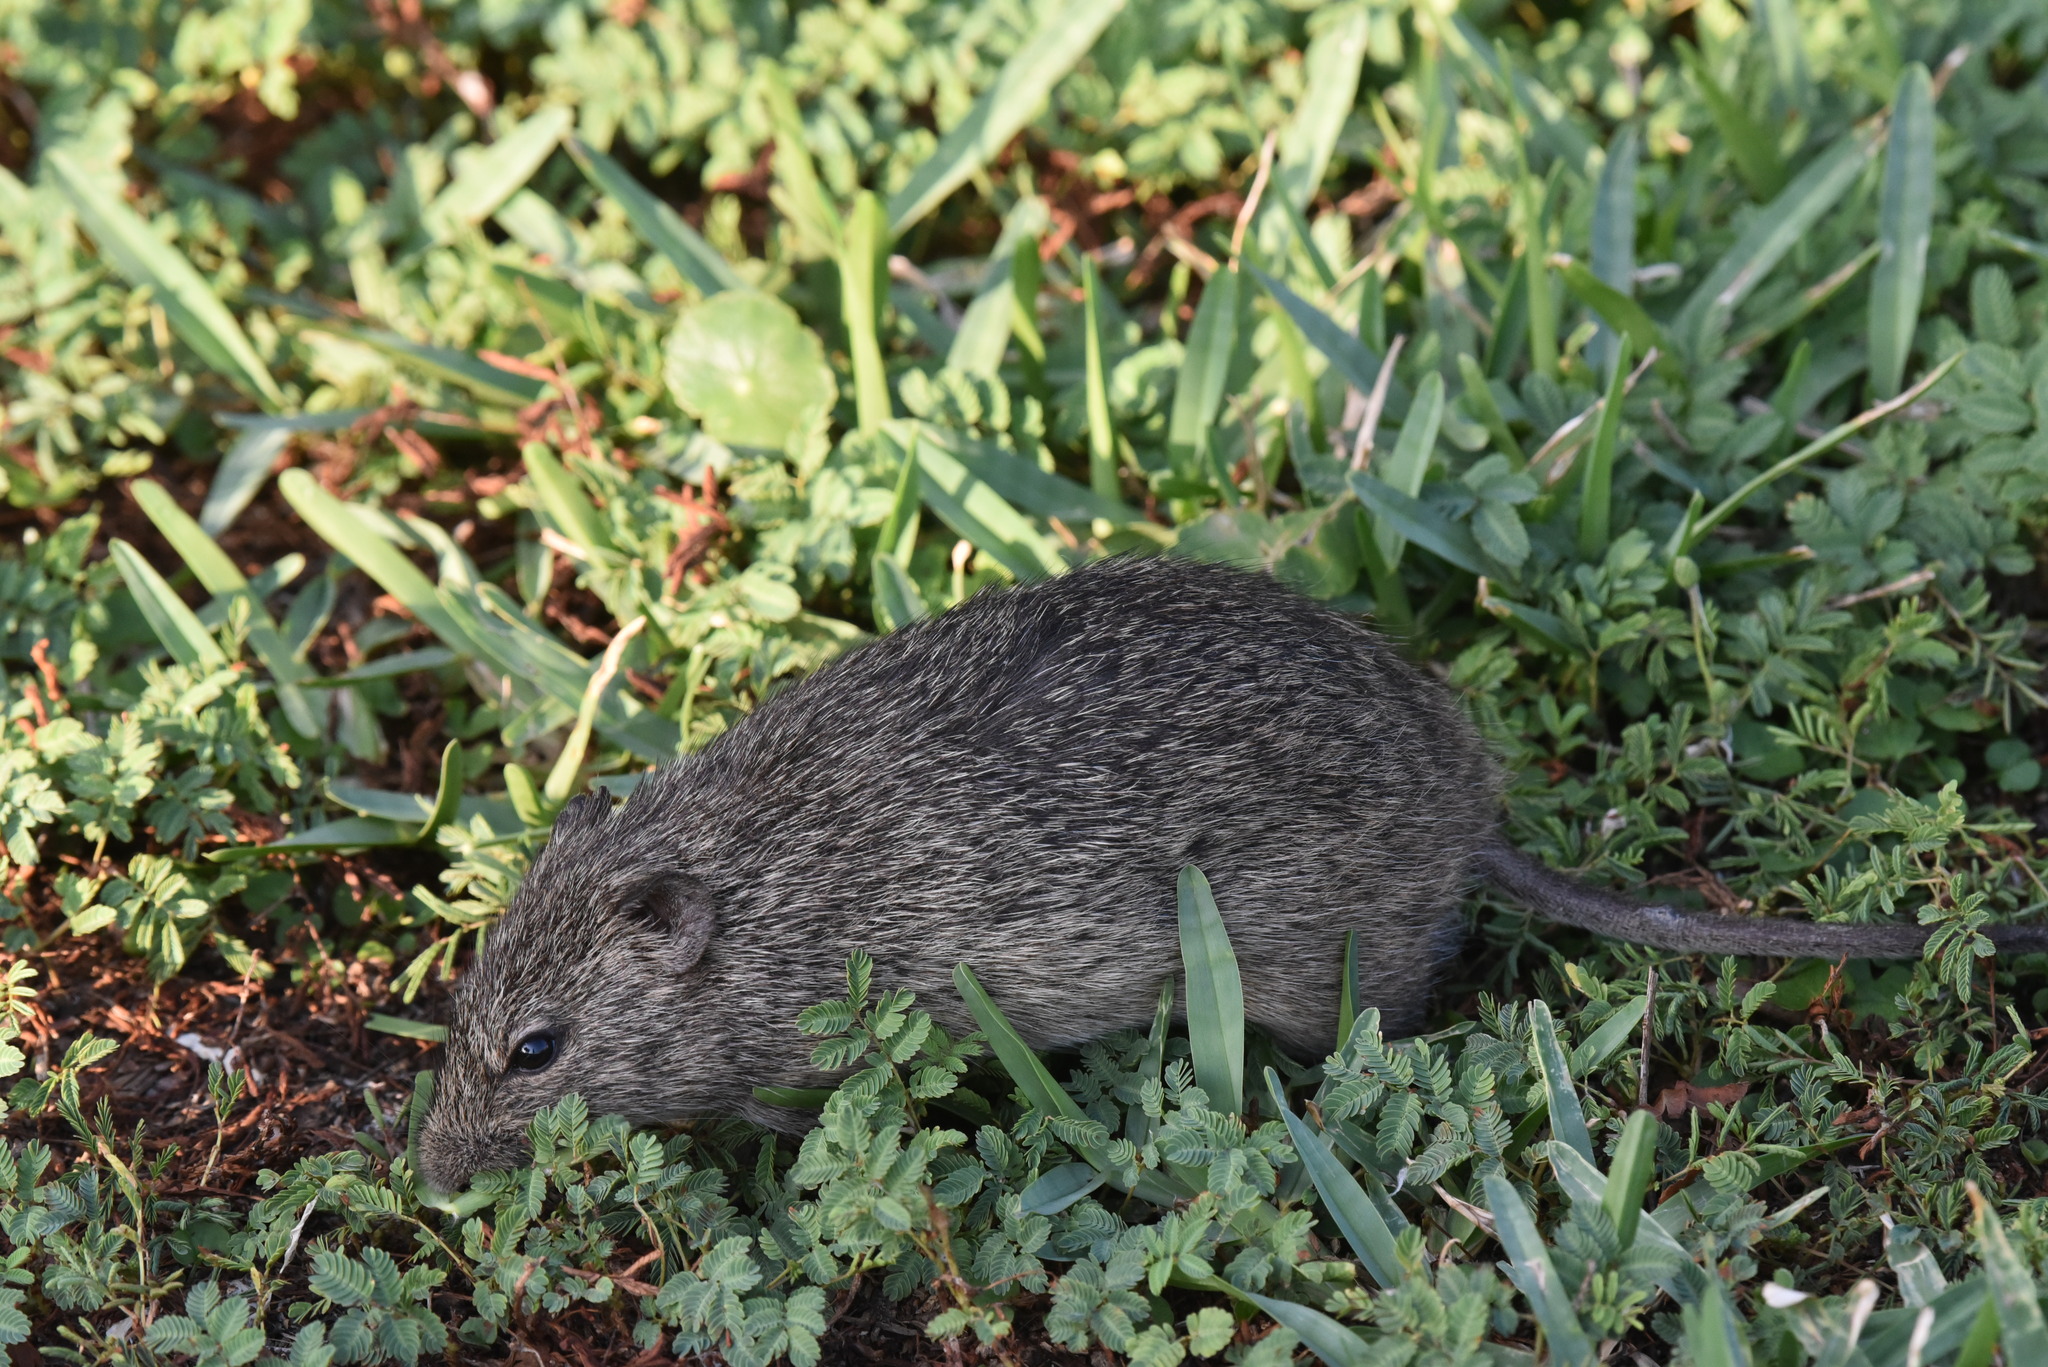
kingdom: Animalia
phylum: Chordata
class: Mammalia
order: Rodentia
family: Cricetidae
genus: Sigmodon
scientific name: Sigmodon hispidus
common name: Hispid cotton rat
